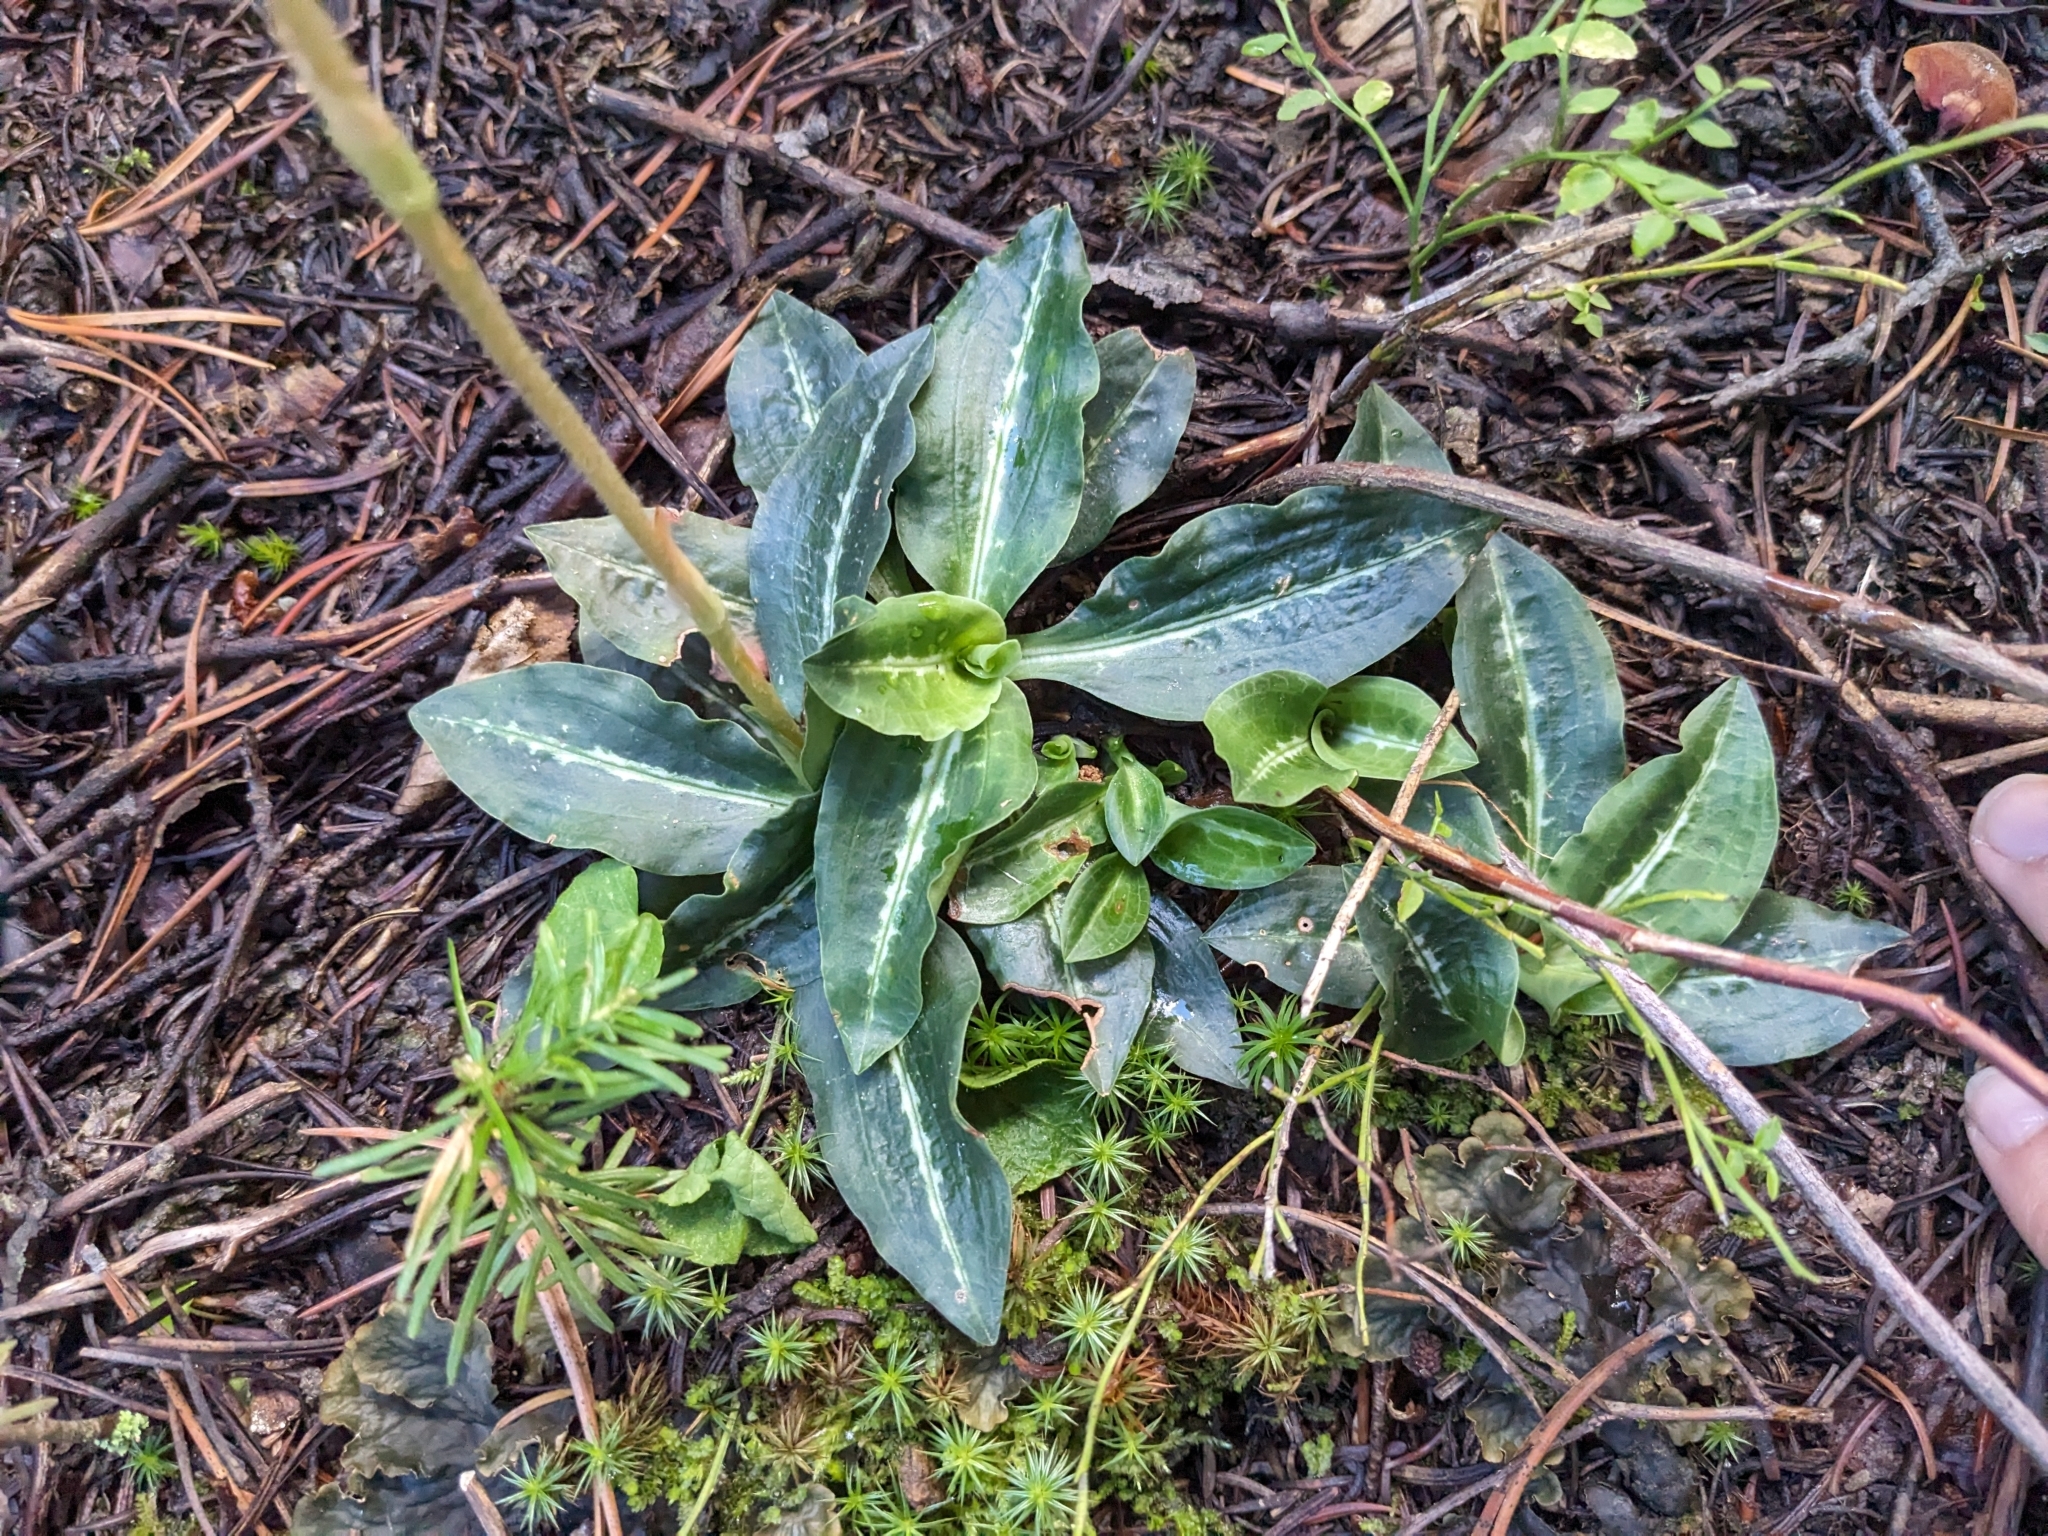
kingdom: Plantae
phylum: Tracheophyta
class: Liliopsida
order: Asparagales
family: Orchidaceae
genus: Goodyera
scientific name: Goodyera oblongifolia
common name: Giant rattlesnake-plantain
